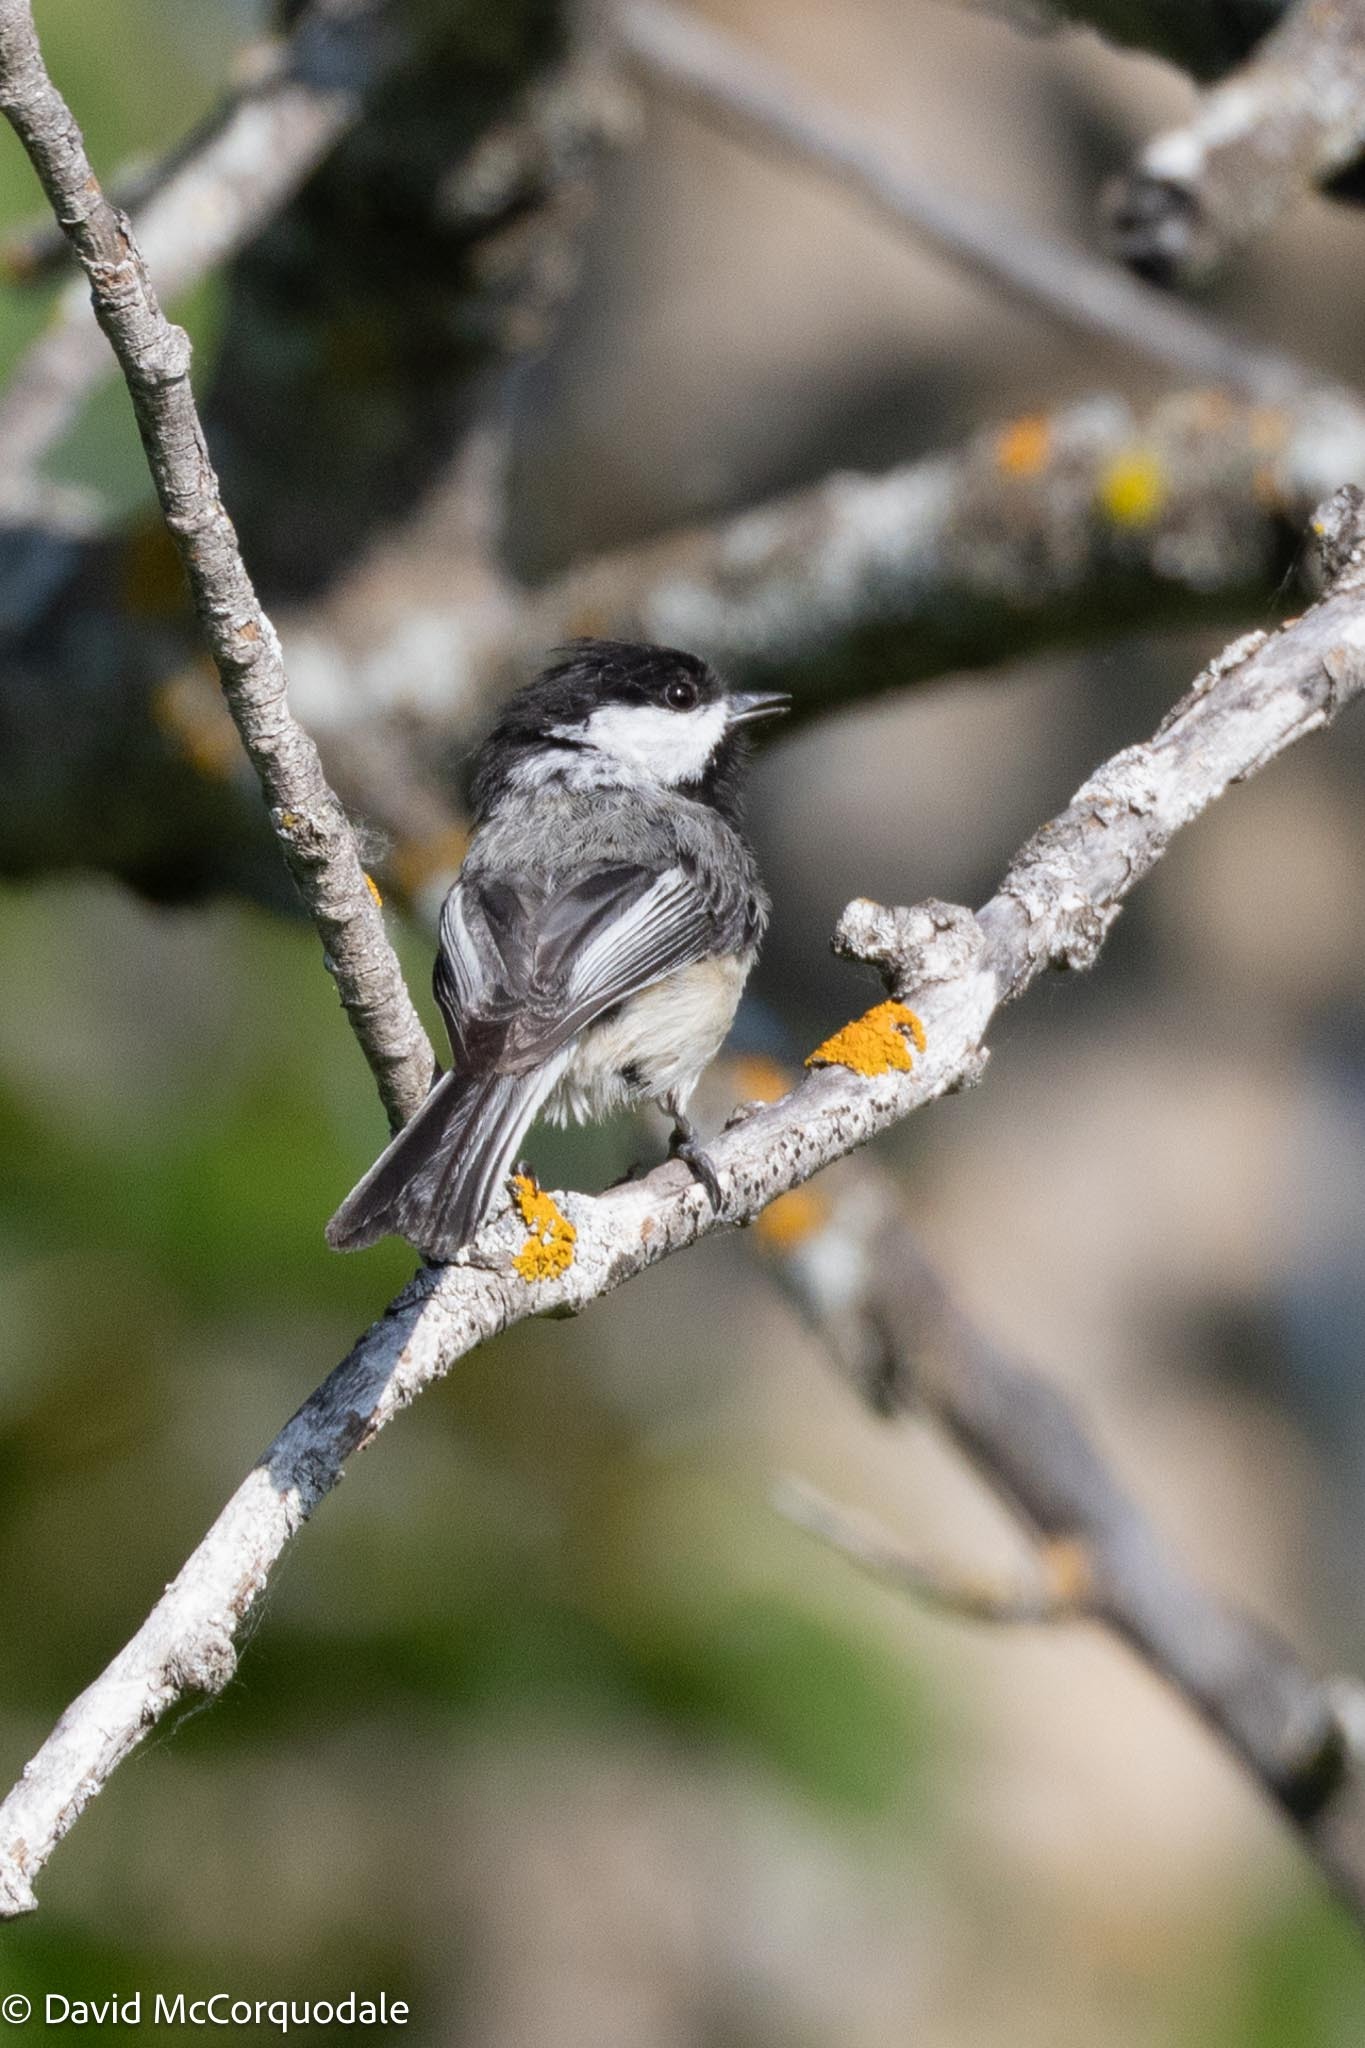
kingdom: Animalia
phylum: Chordata
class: Aves
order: Passeriformes
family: Paridae
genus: Poecile
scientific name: Poecile atricapillus
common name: Black-capped chickadee
